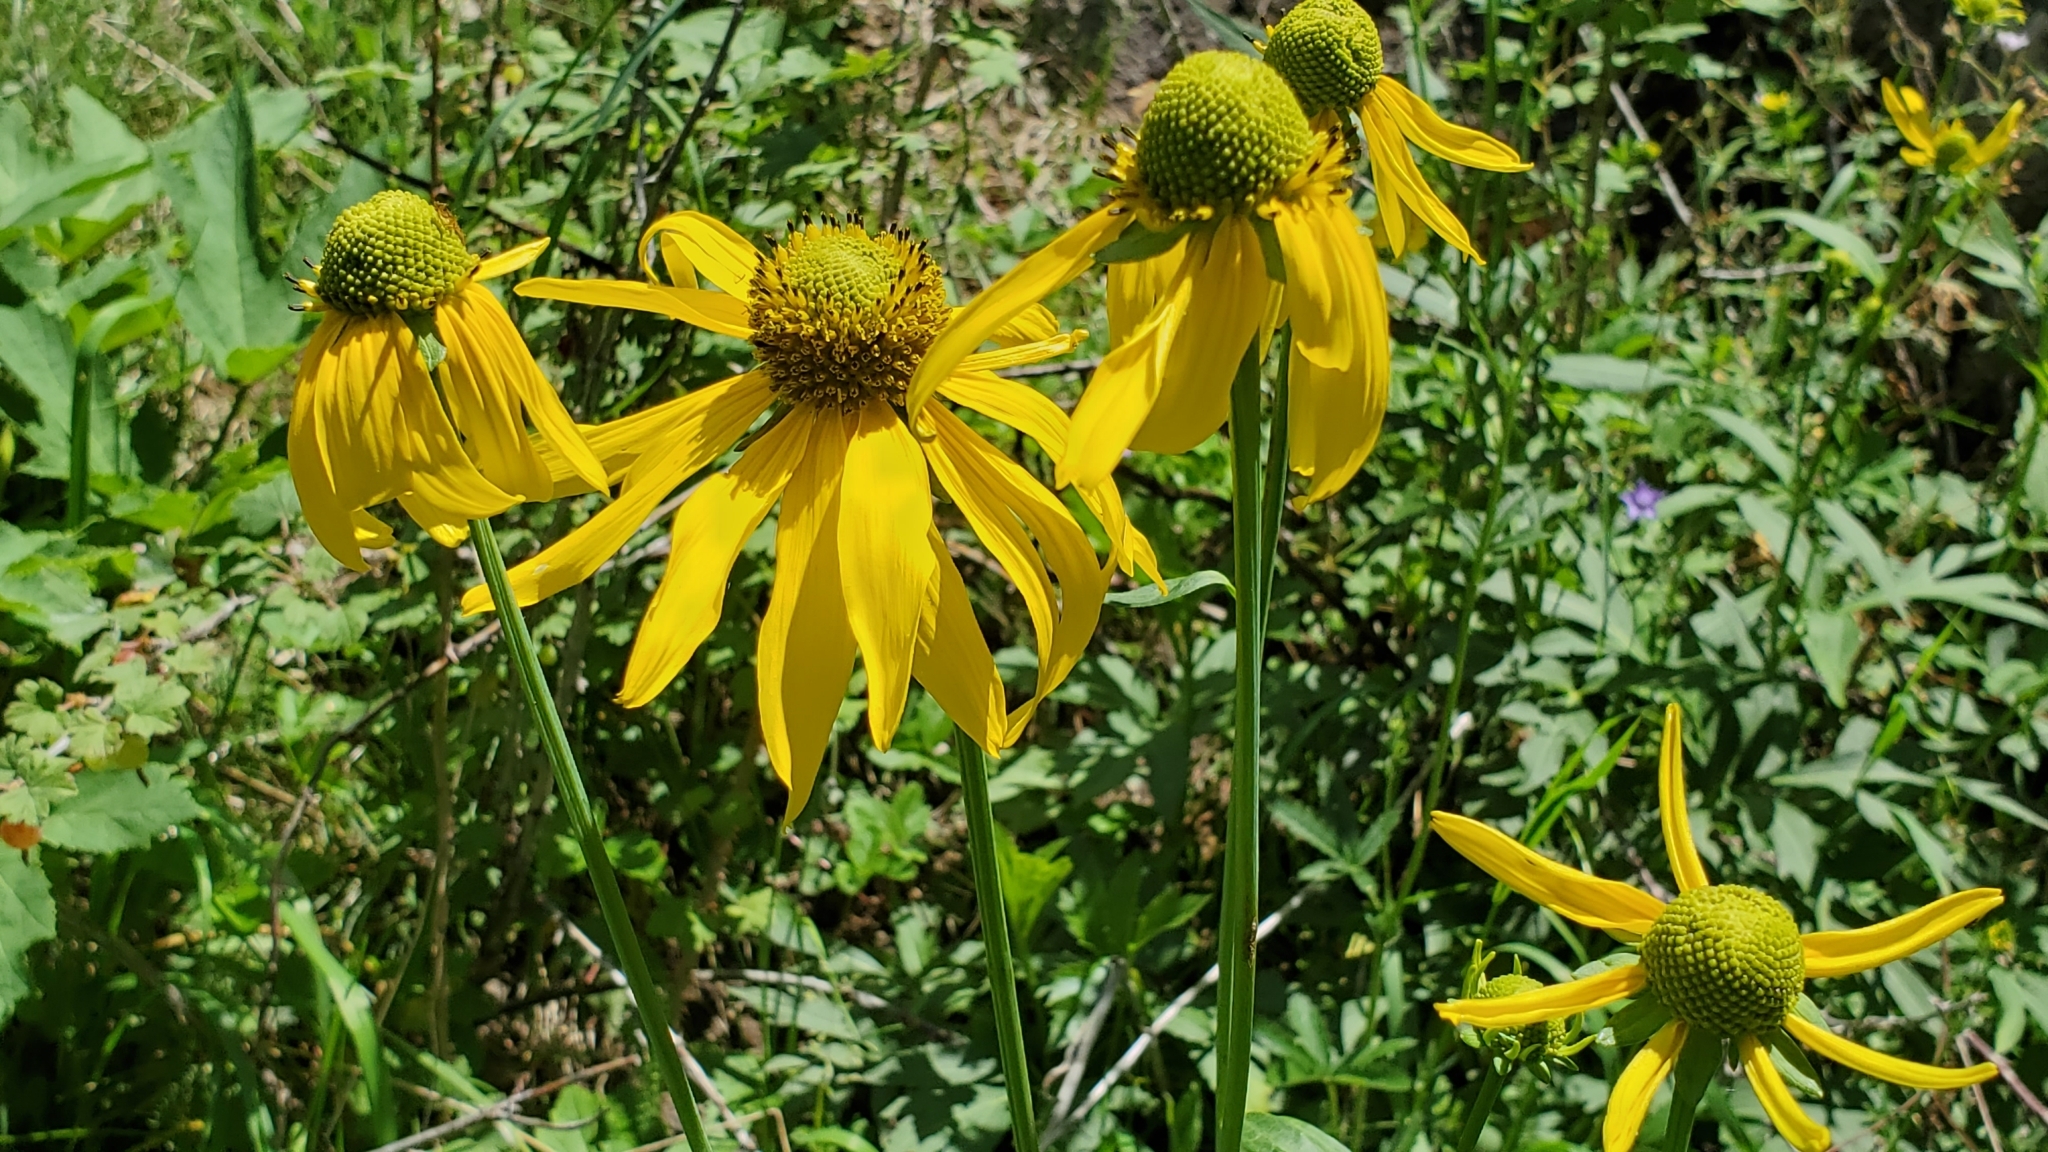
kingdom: Plantae
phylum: Tracheophyta
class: Magnoliopsida
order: Asterales
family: Asteraceae
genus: Rudbeckia
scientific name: Rudbeckia laciniata
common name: Coneflower
